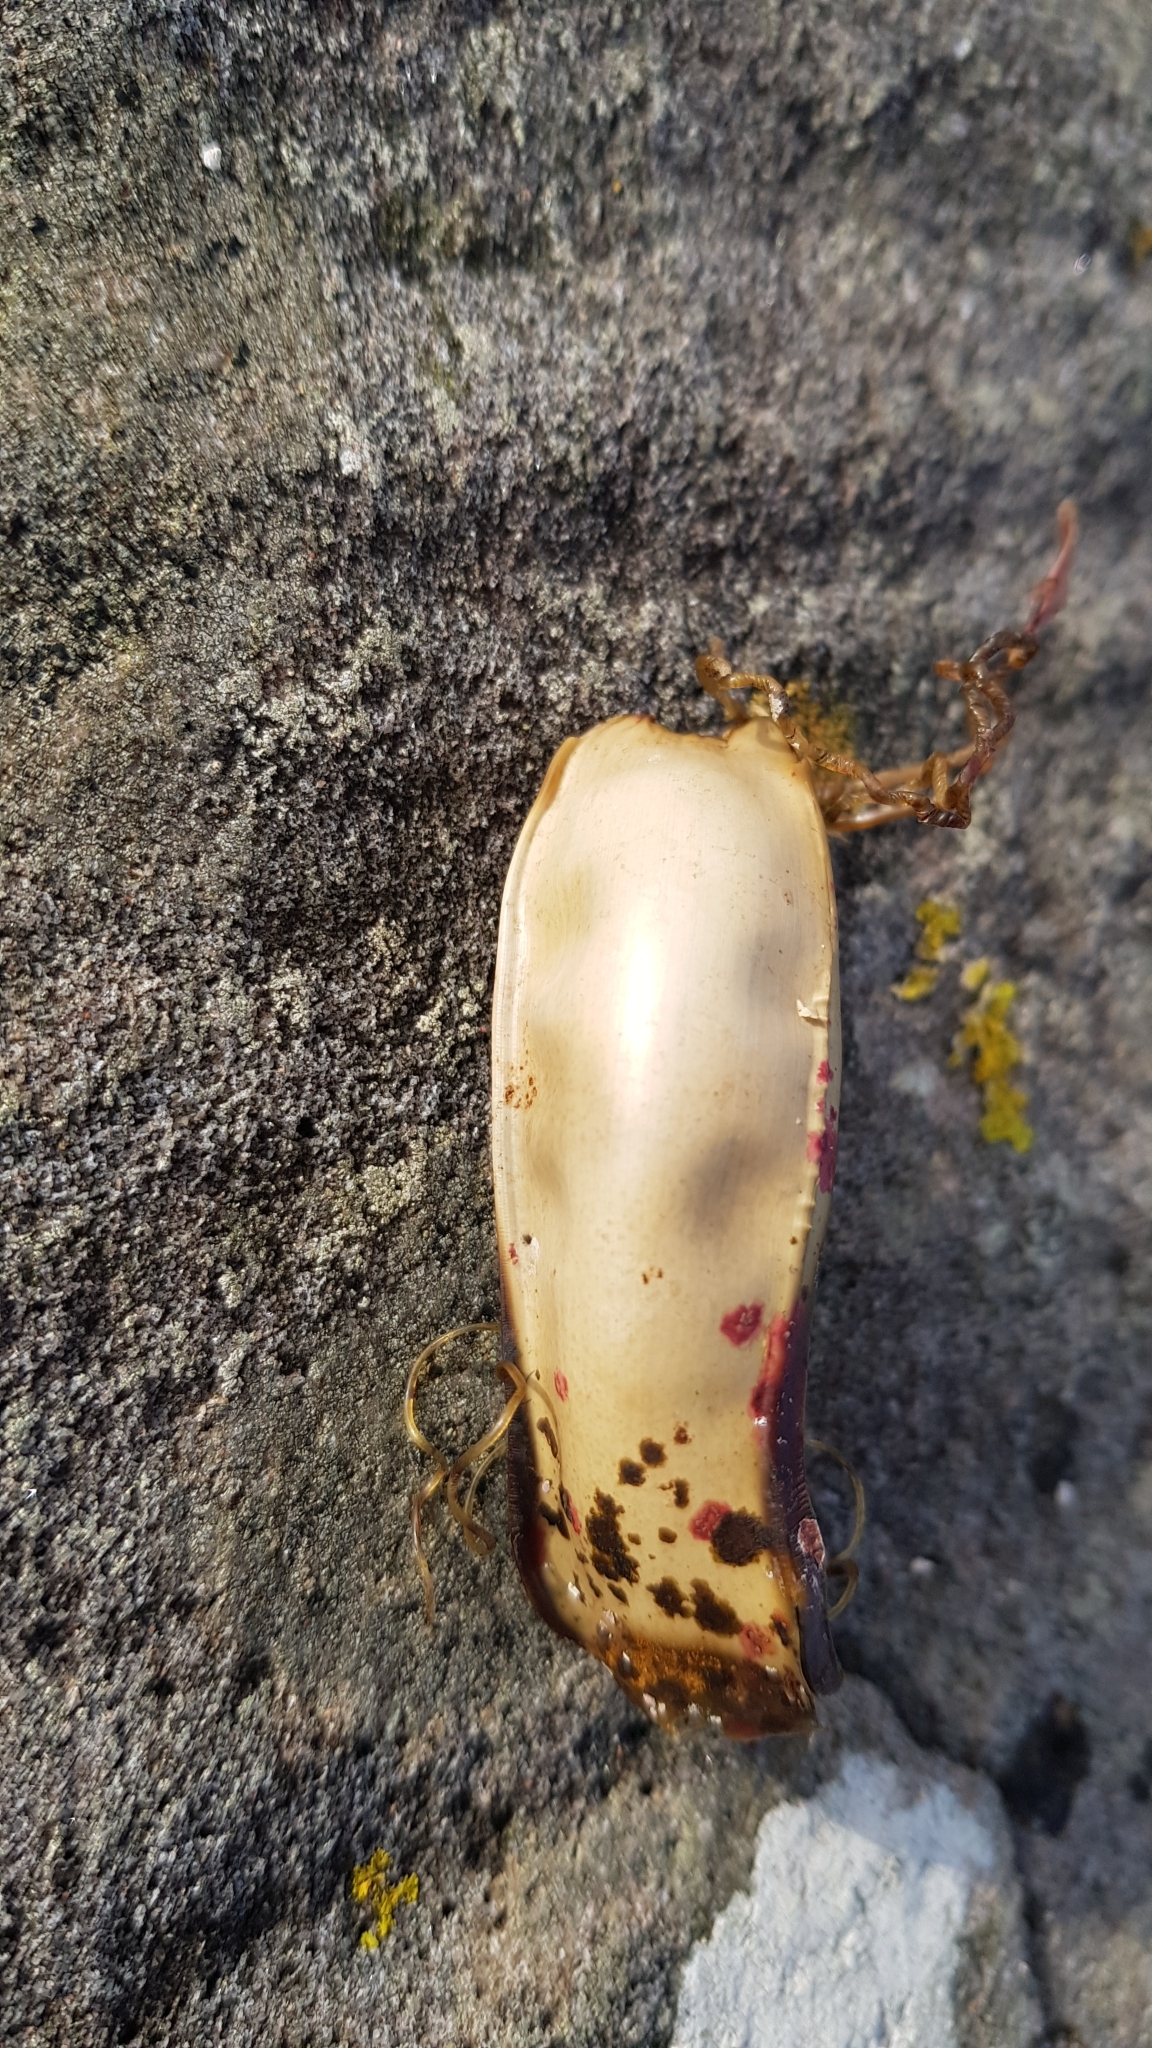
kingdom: Animalia
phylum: Chordata
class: Elasmobranchii
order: Carcharhiniformes
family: Scyliorhinidae
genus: Scyliorhinus
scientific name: Scyliorhinus canicula
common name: Lesser spotted dogfish
